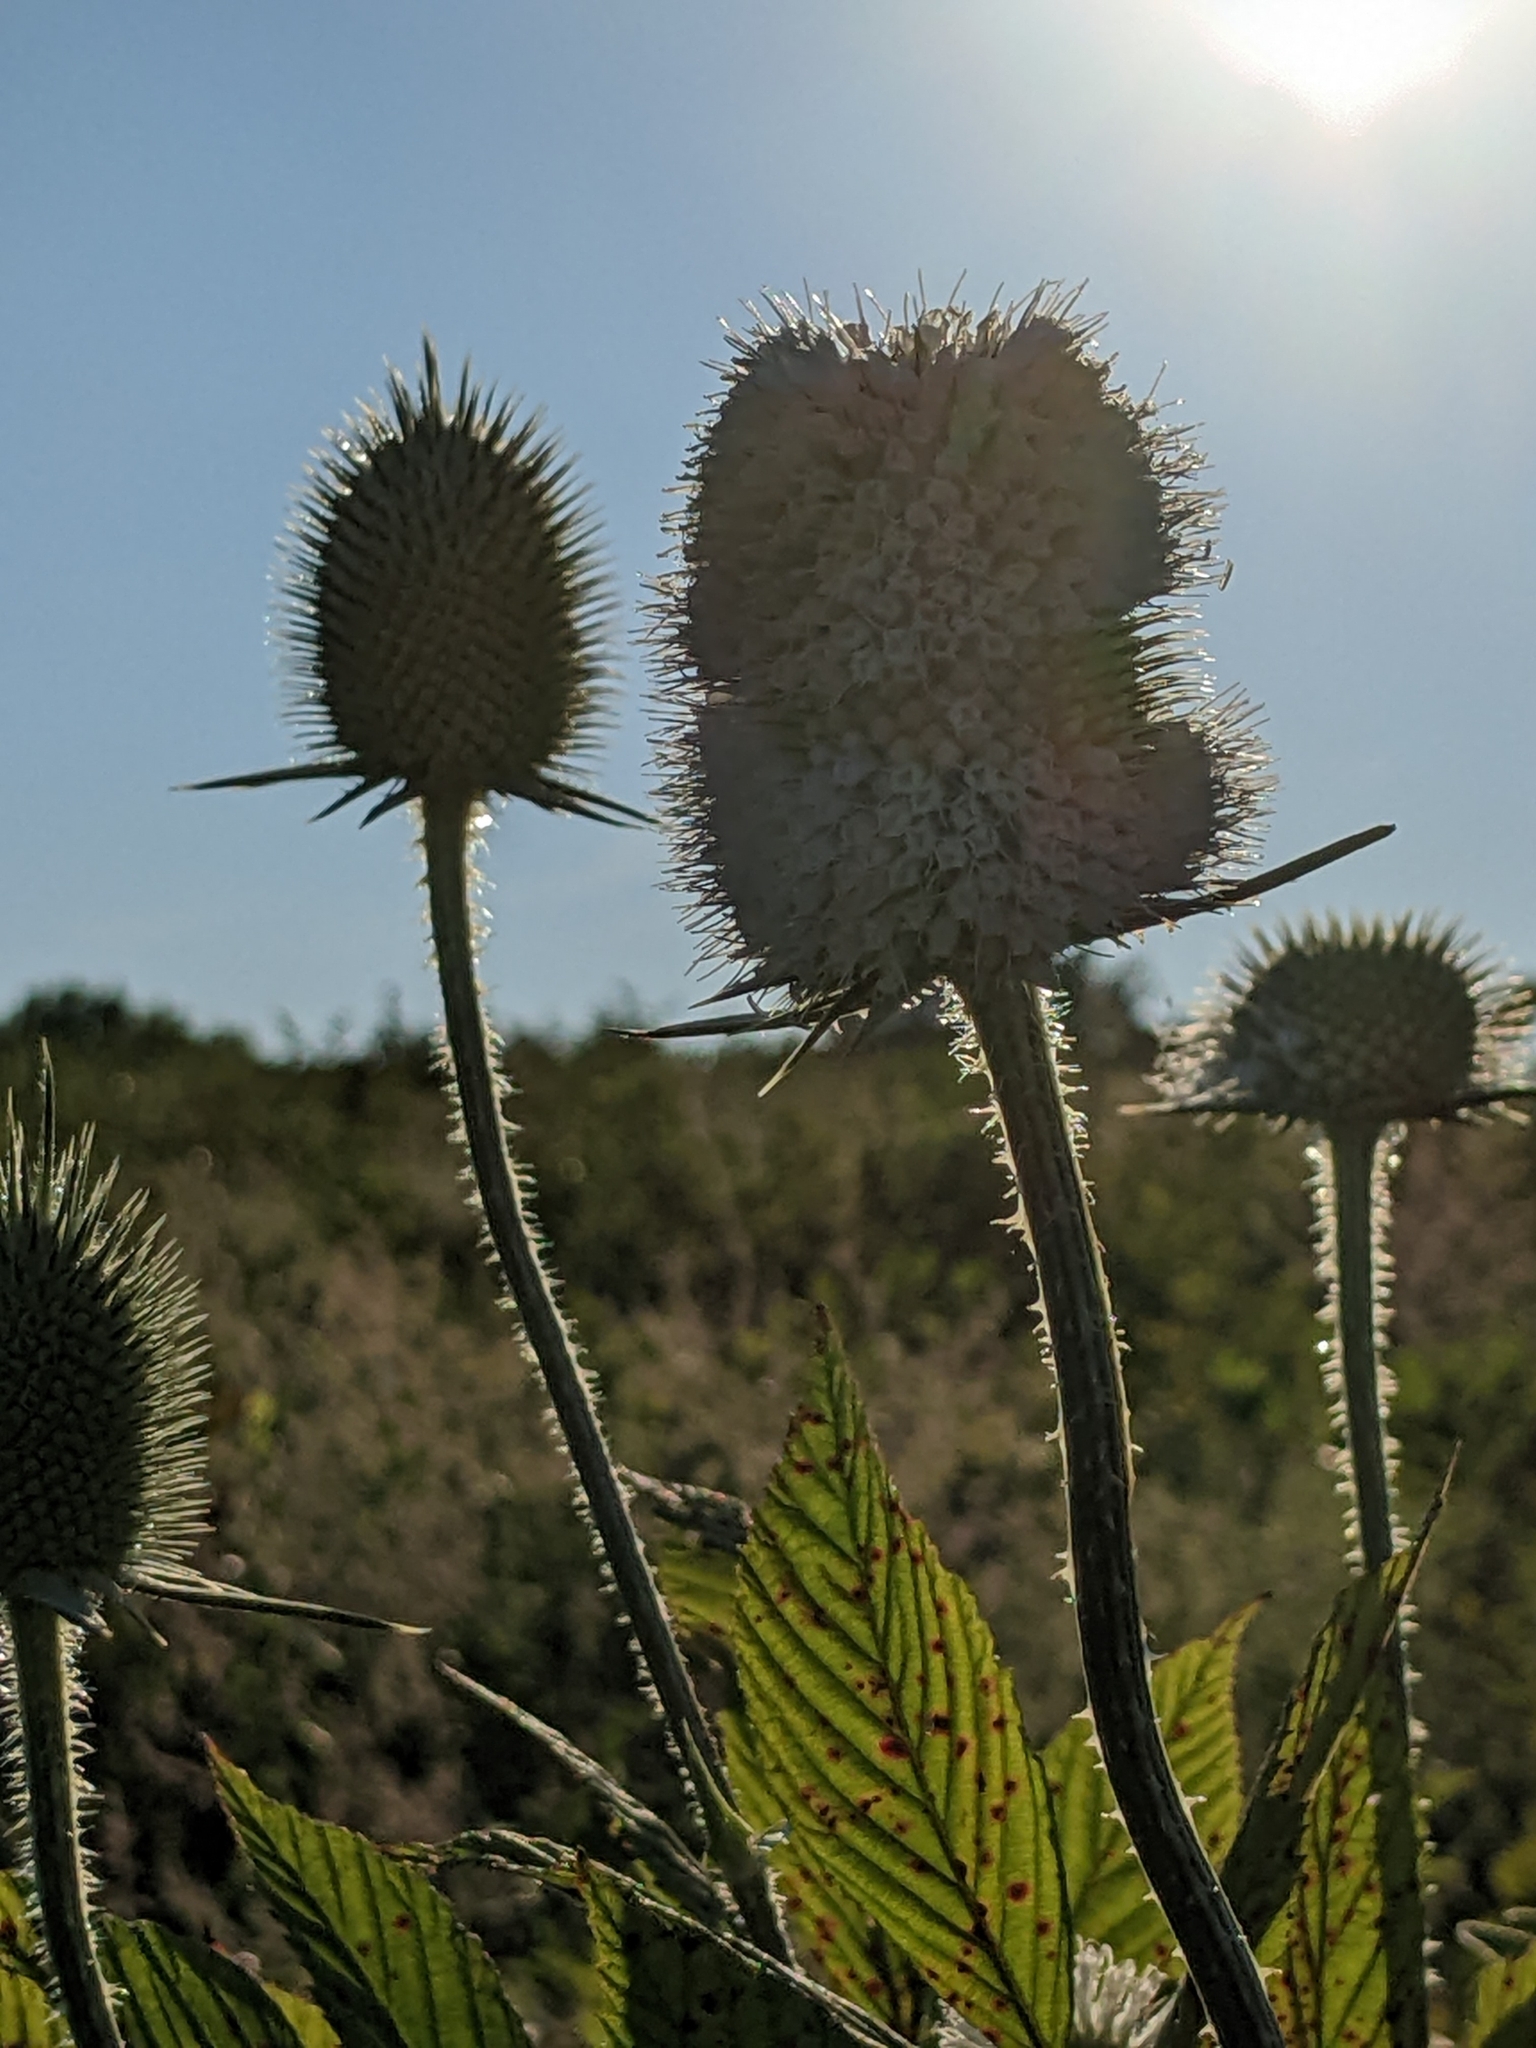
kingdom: Plantae
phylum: Tracheophyta
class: Magnoliopsida
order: Dipsacales
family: Caprifoliaceae
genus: Dipsacus
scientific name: Dipsacus laciniatus
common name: Cut-leaved teasel
